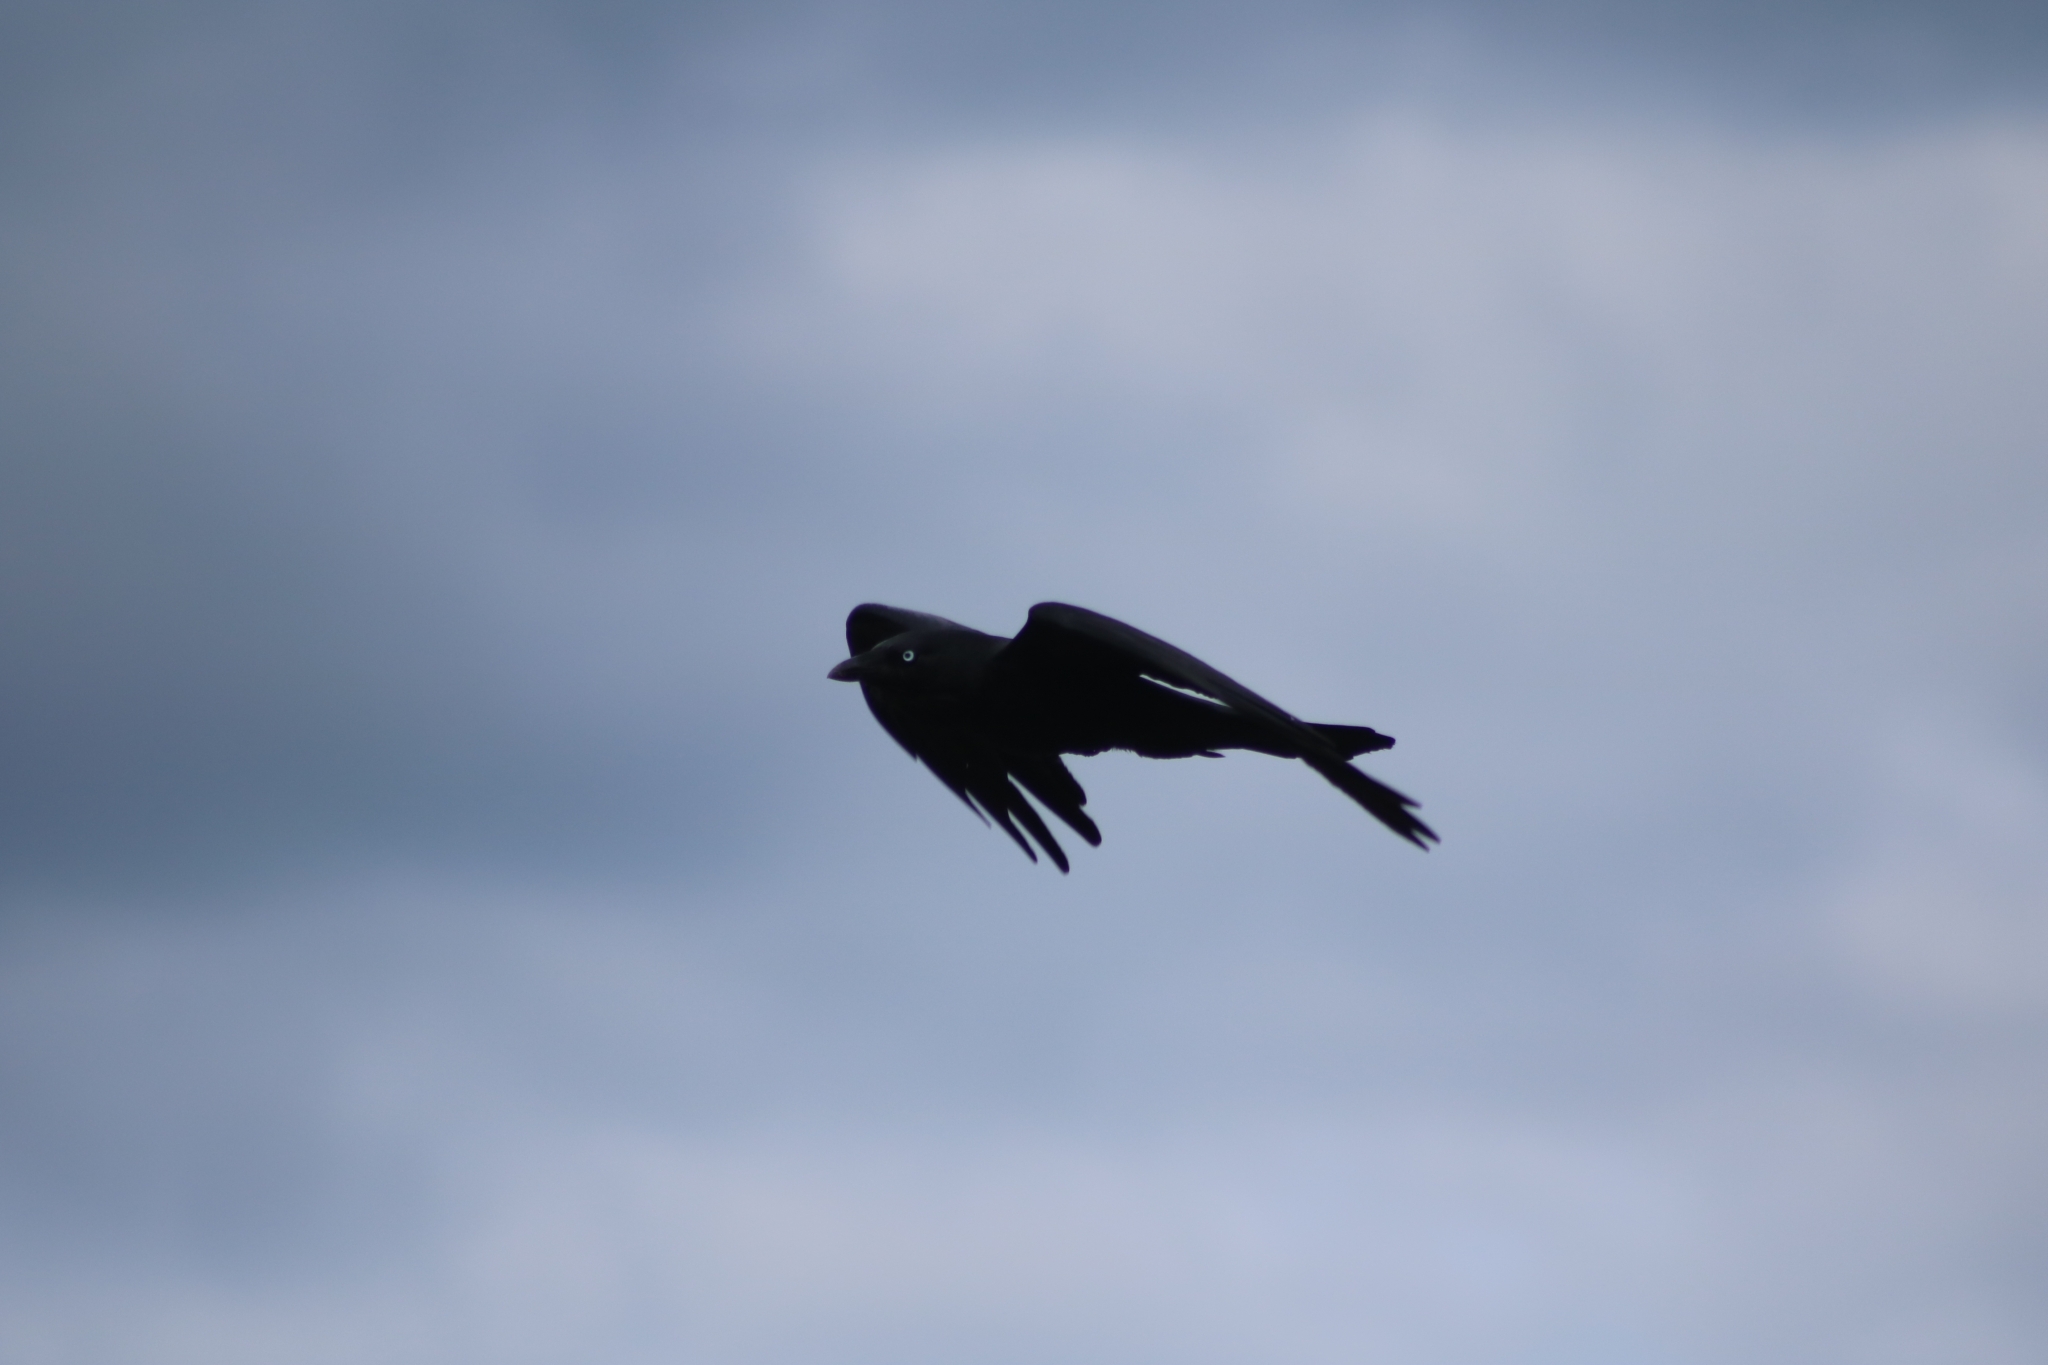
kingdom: Animalia
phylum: Chordata
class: Aves
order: Passeriformes
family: Corvidae
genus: Corvus
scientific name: Corvus coronoides
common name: Australian raven
